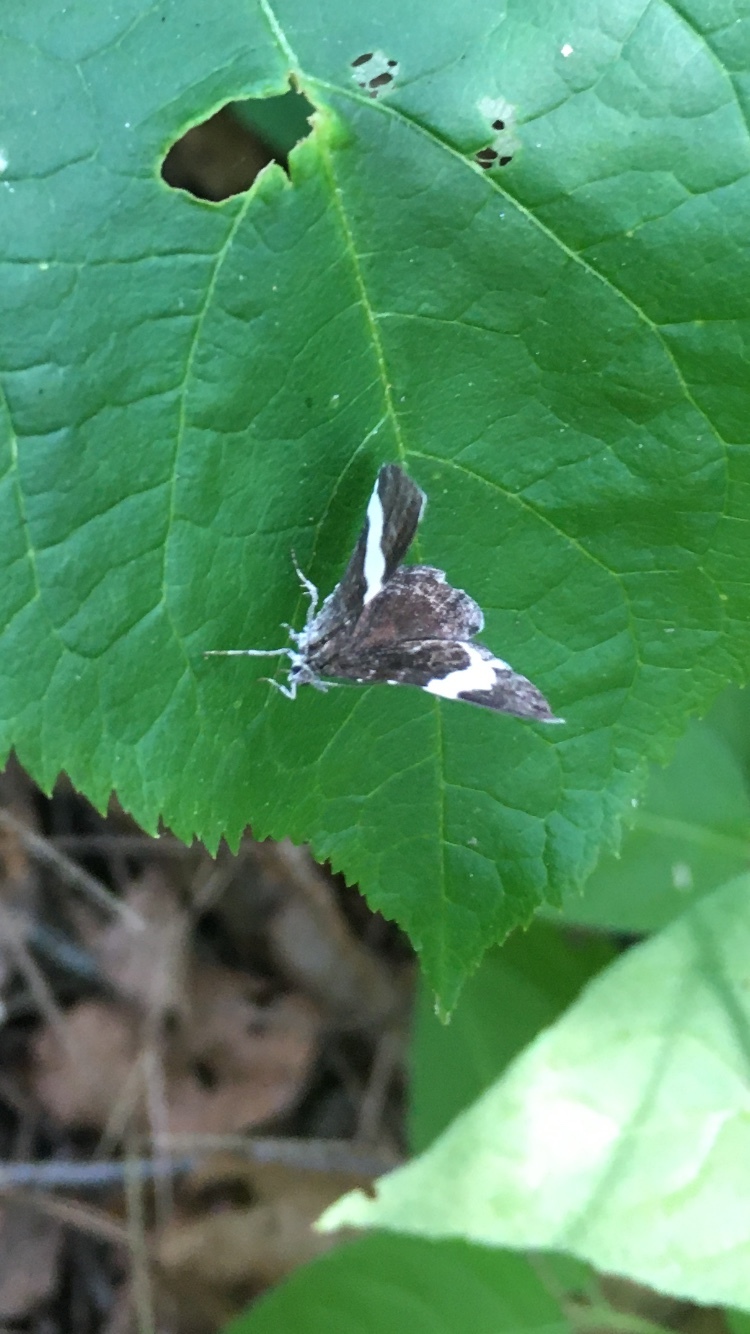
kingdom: Animalia
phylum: Arthropoda
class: Insecta
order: Lepidoptera
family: Geometridae
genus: Trichodezia
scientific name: Trichodezia albovittata
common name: White striped black
